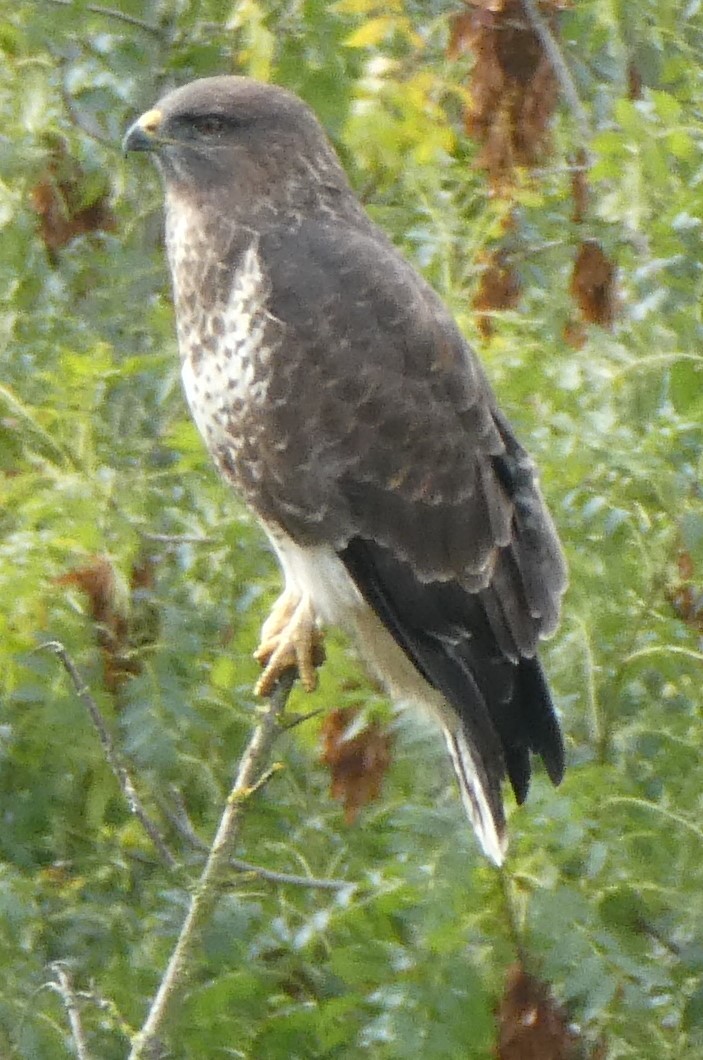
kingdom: Animalia
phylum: Chordata
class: Aves
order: Accipitriformes
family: Accipitridae
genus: Buteo
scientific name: Buteo buteo
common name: Common buzzard
